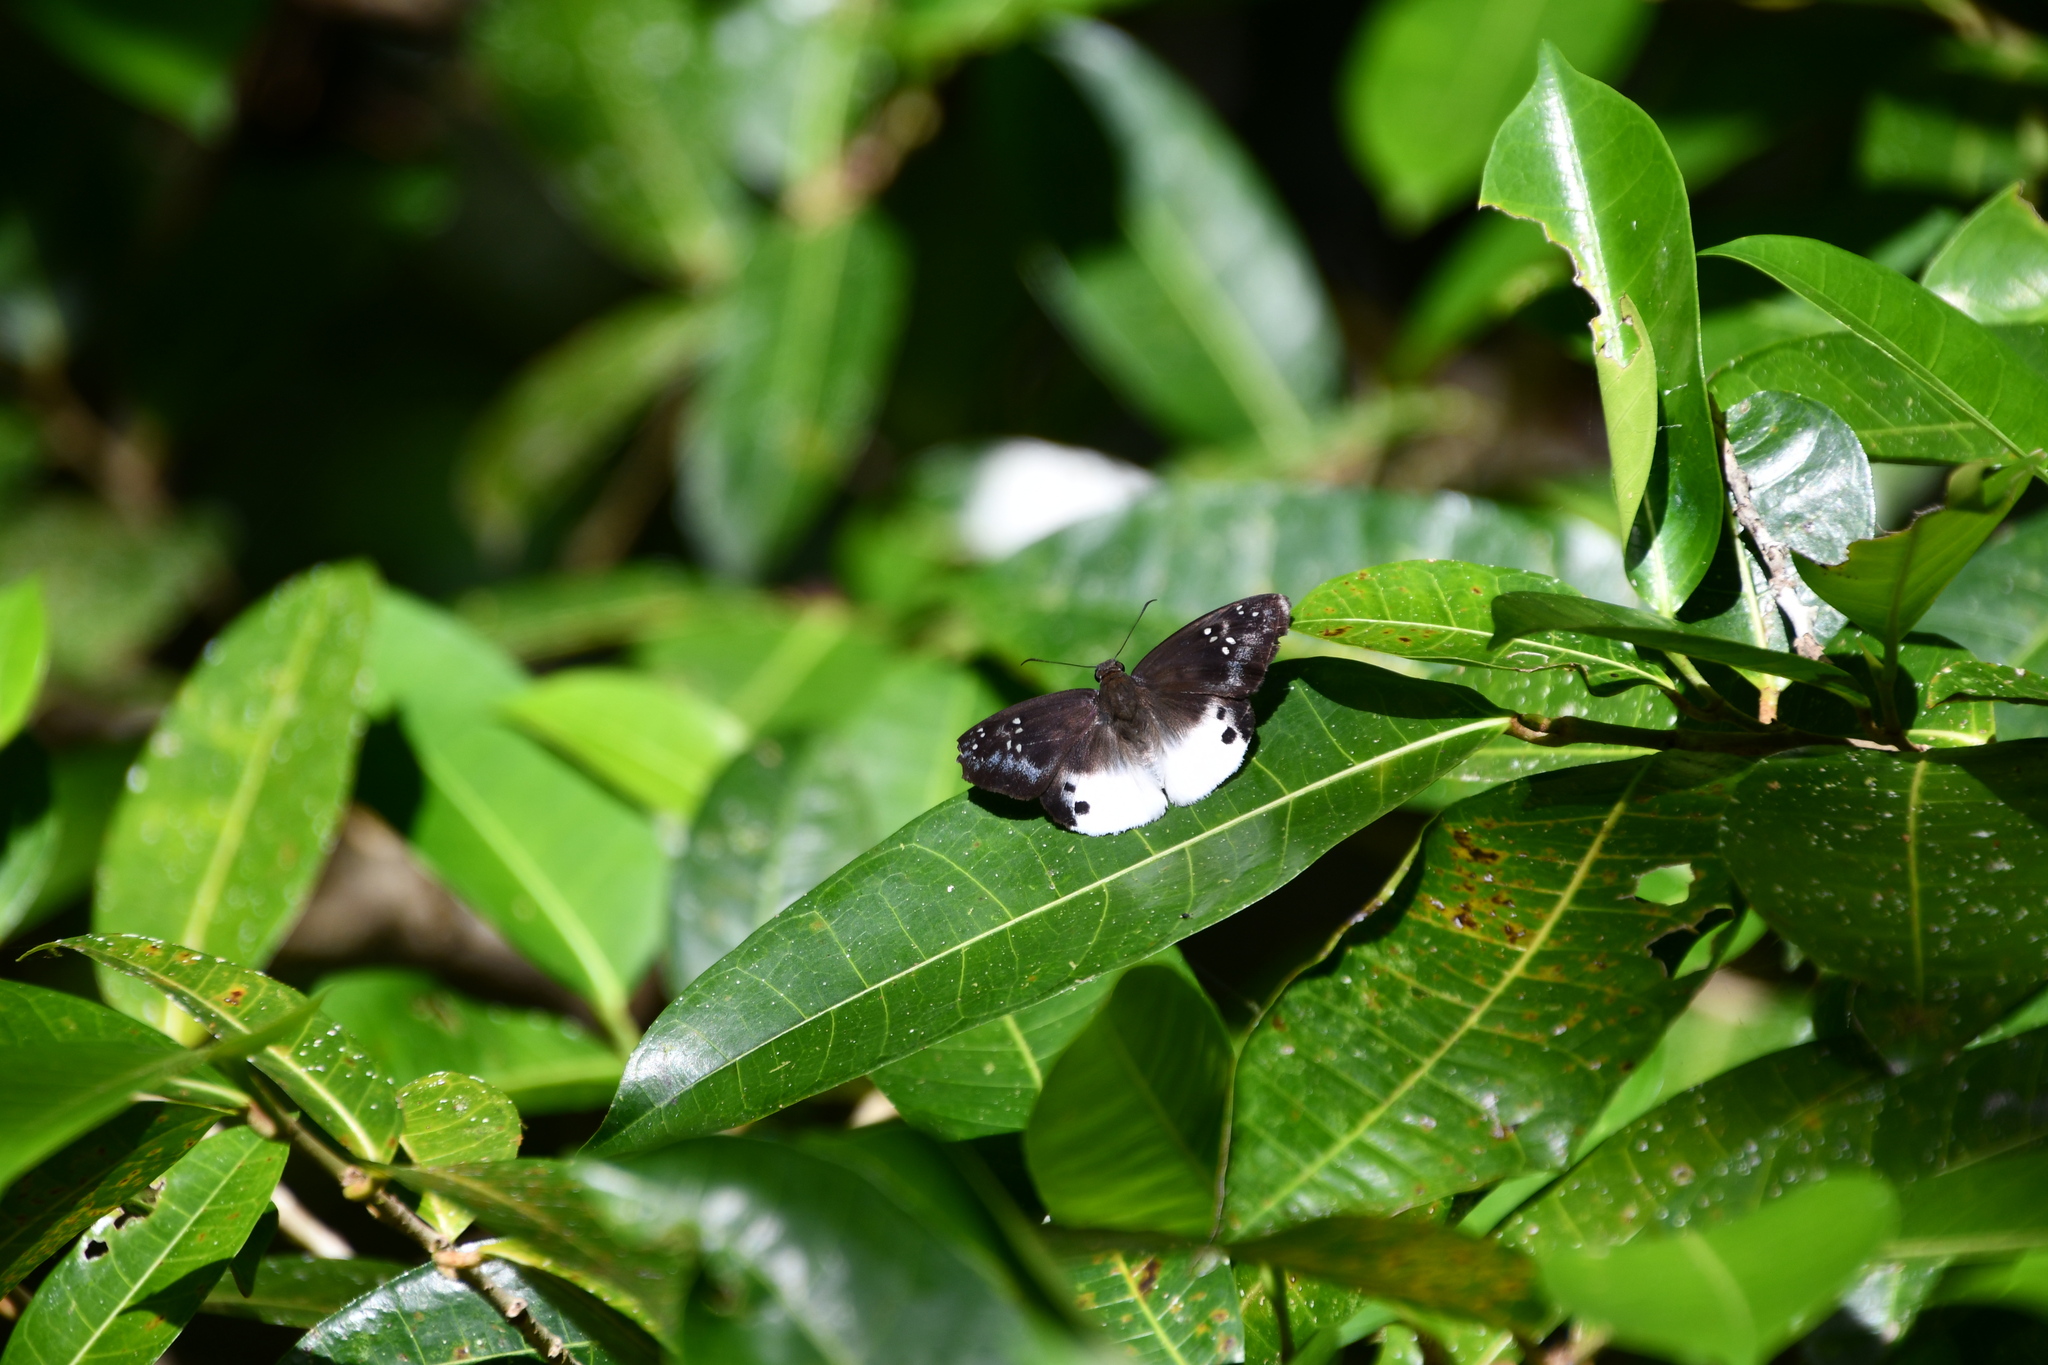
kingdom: Animalia
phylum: Arthropoda
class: Insecta
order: Lepidoptera
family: Hesperiidae
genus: Tagiades
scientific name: Tagiades japetus
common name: Pied flat
